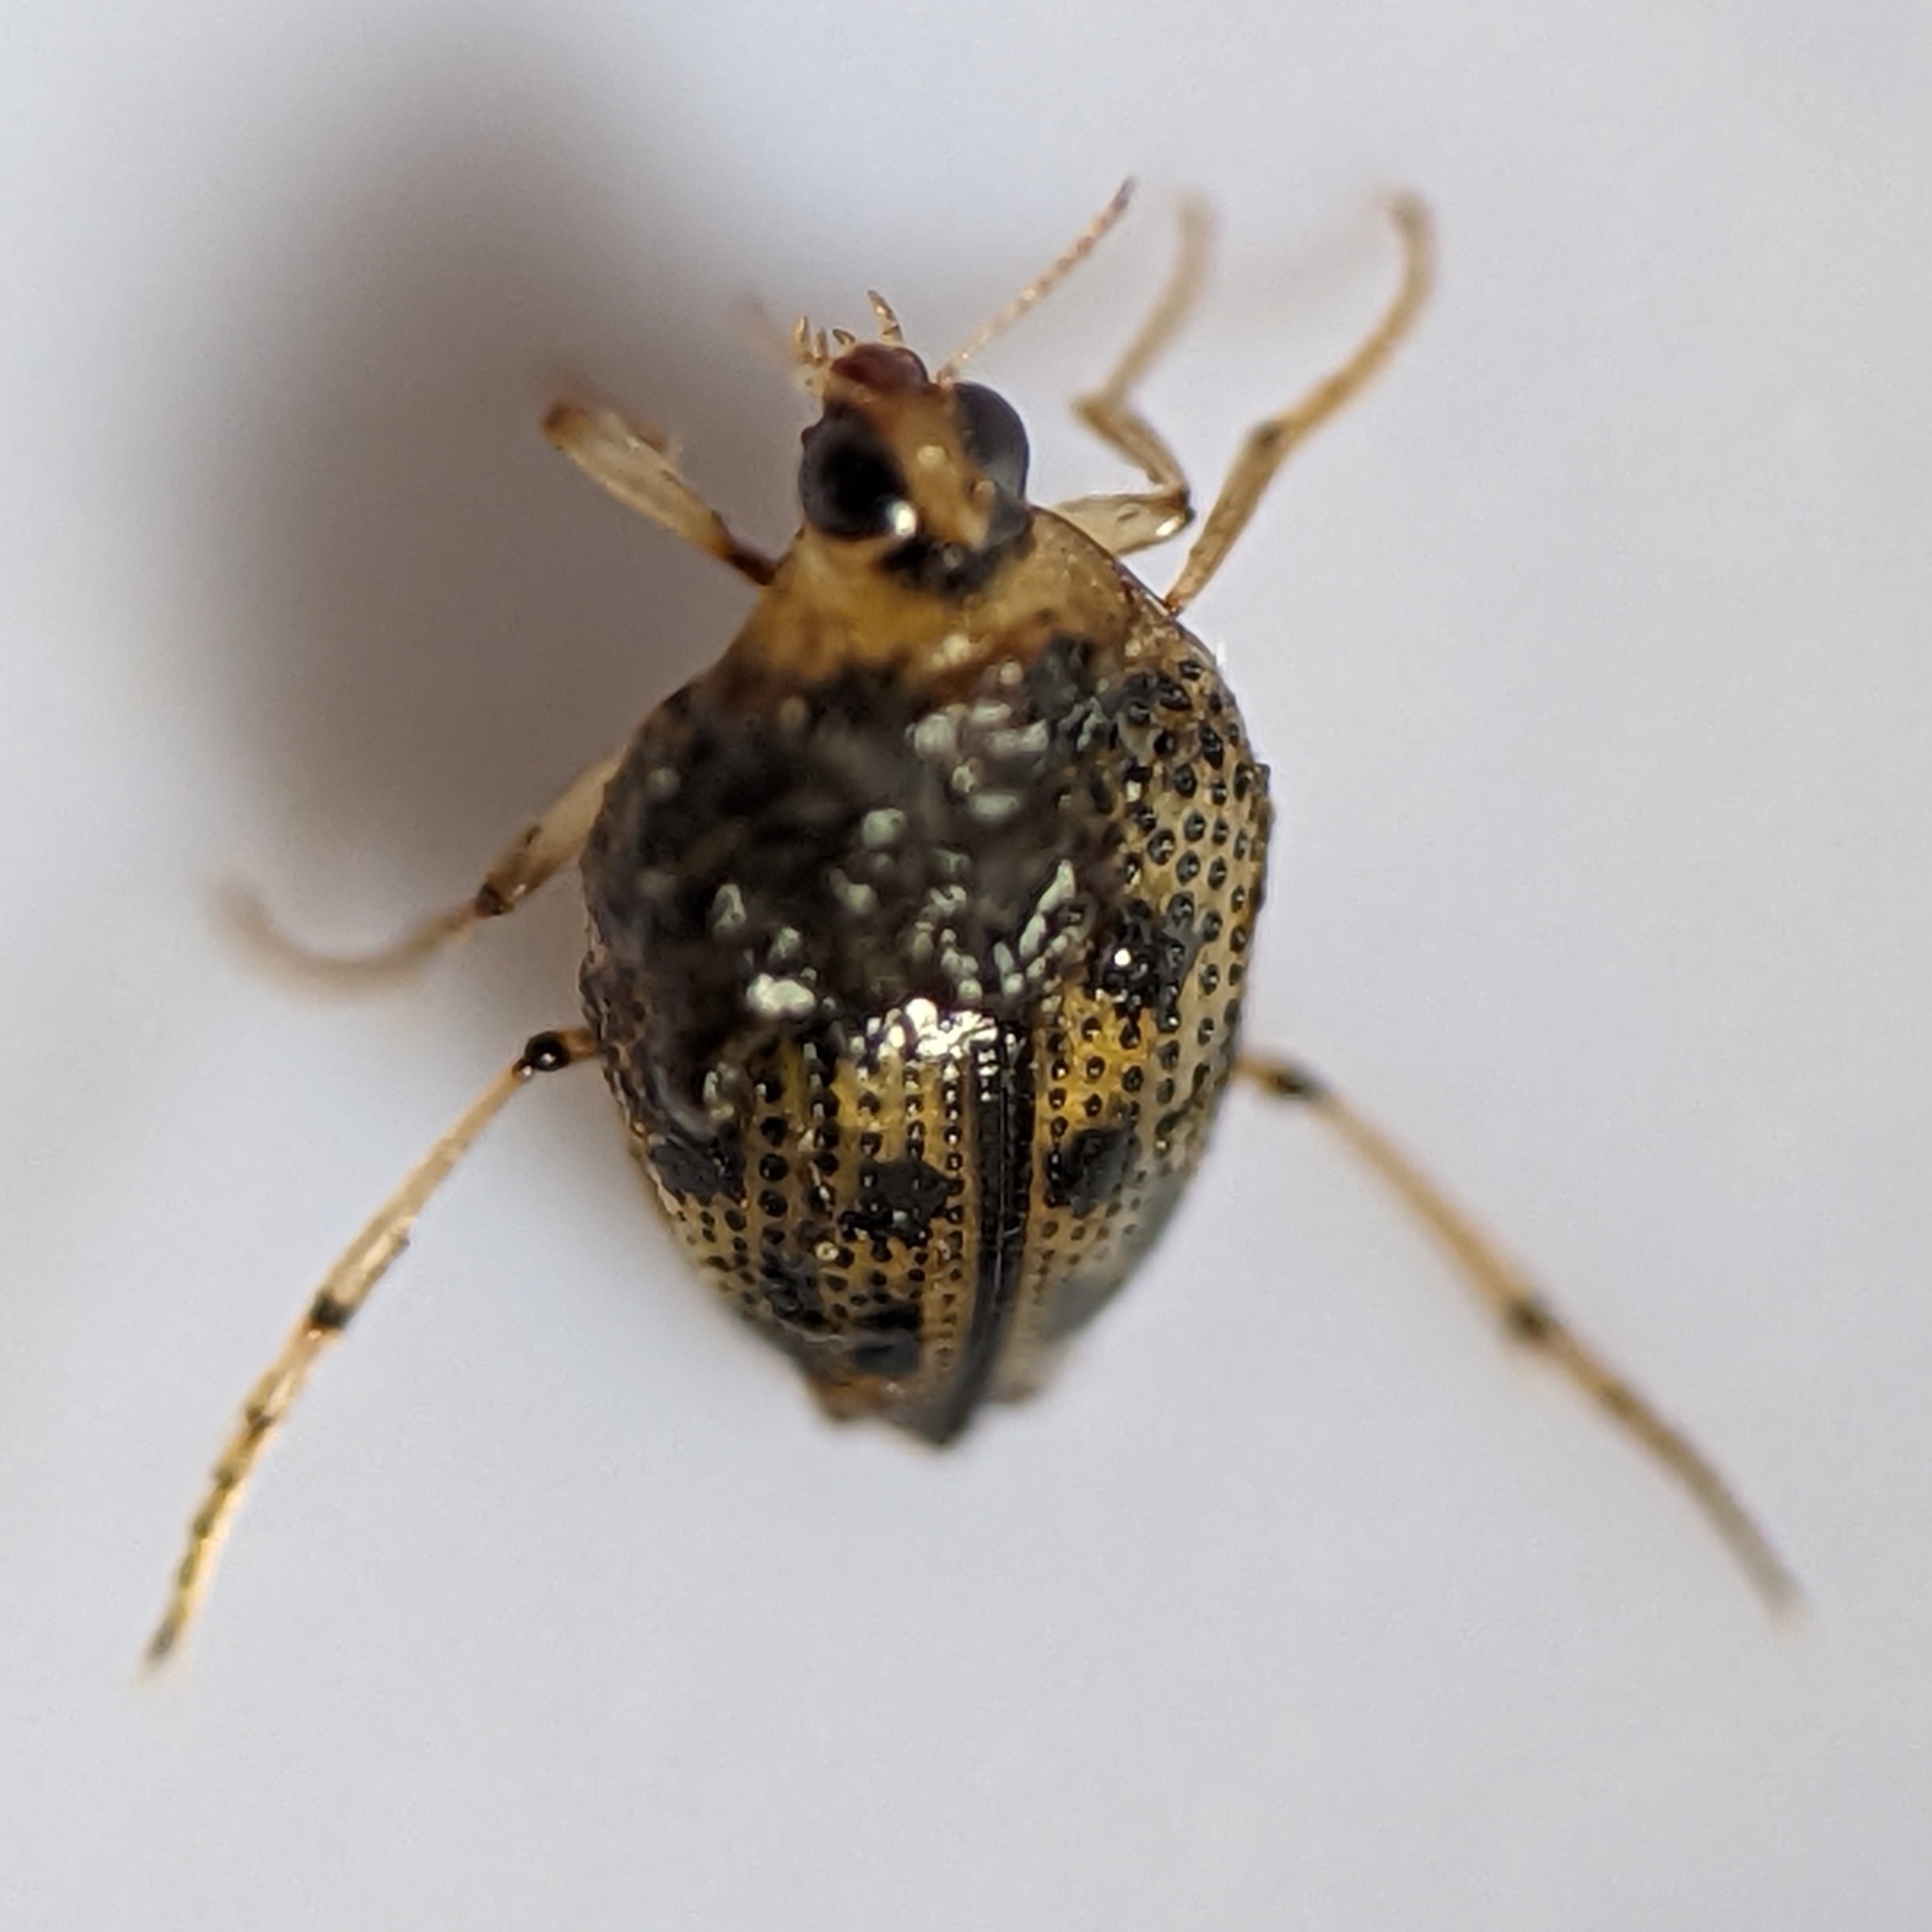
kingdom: Animalia
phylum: Arthropoda
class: Insecta
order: Coleoptera
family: Haliplidae
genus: Peltodytes
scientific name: Peltodytes edentulus
